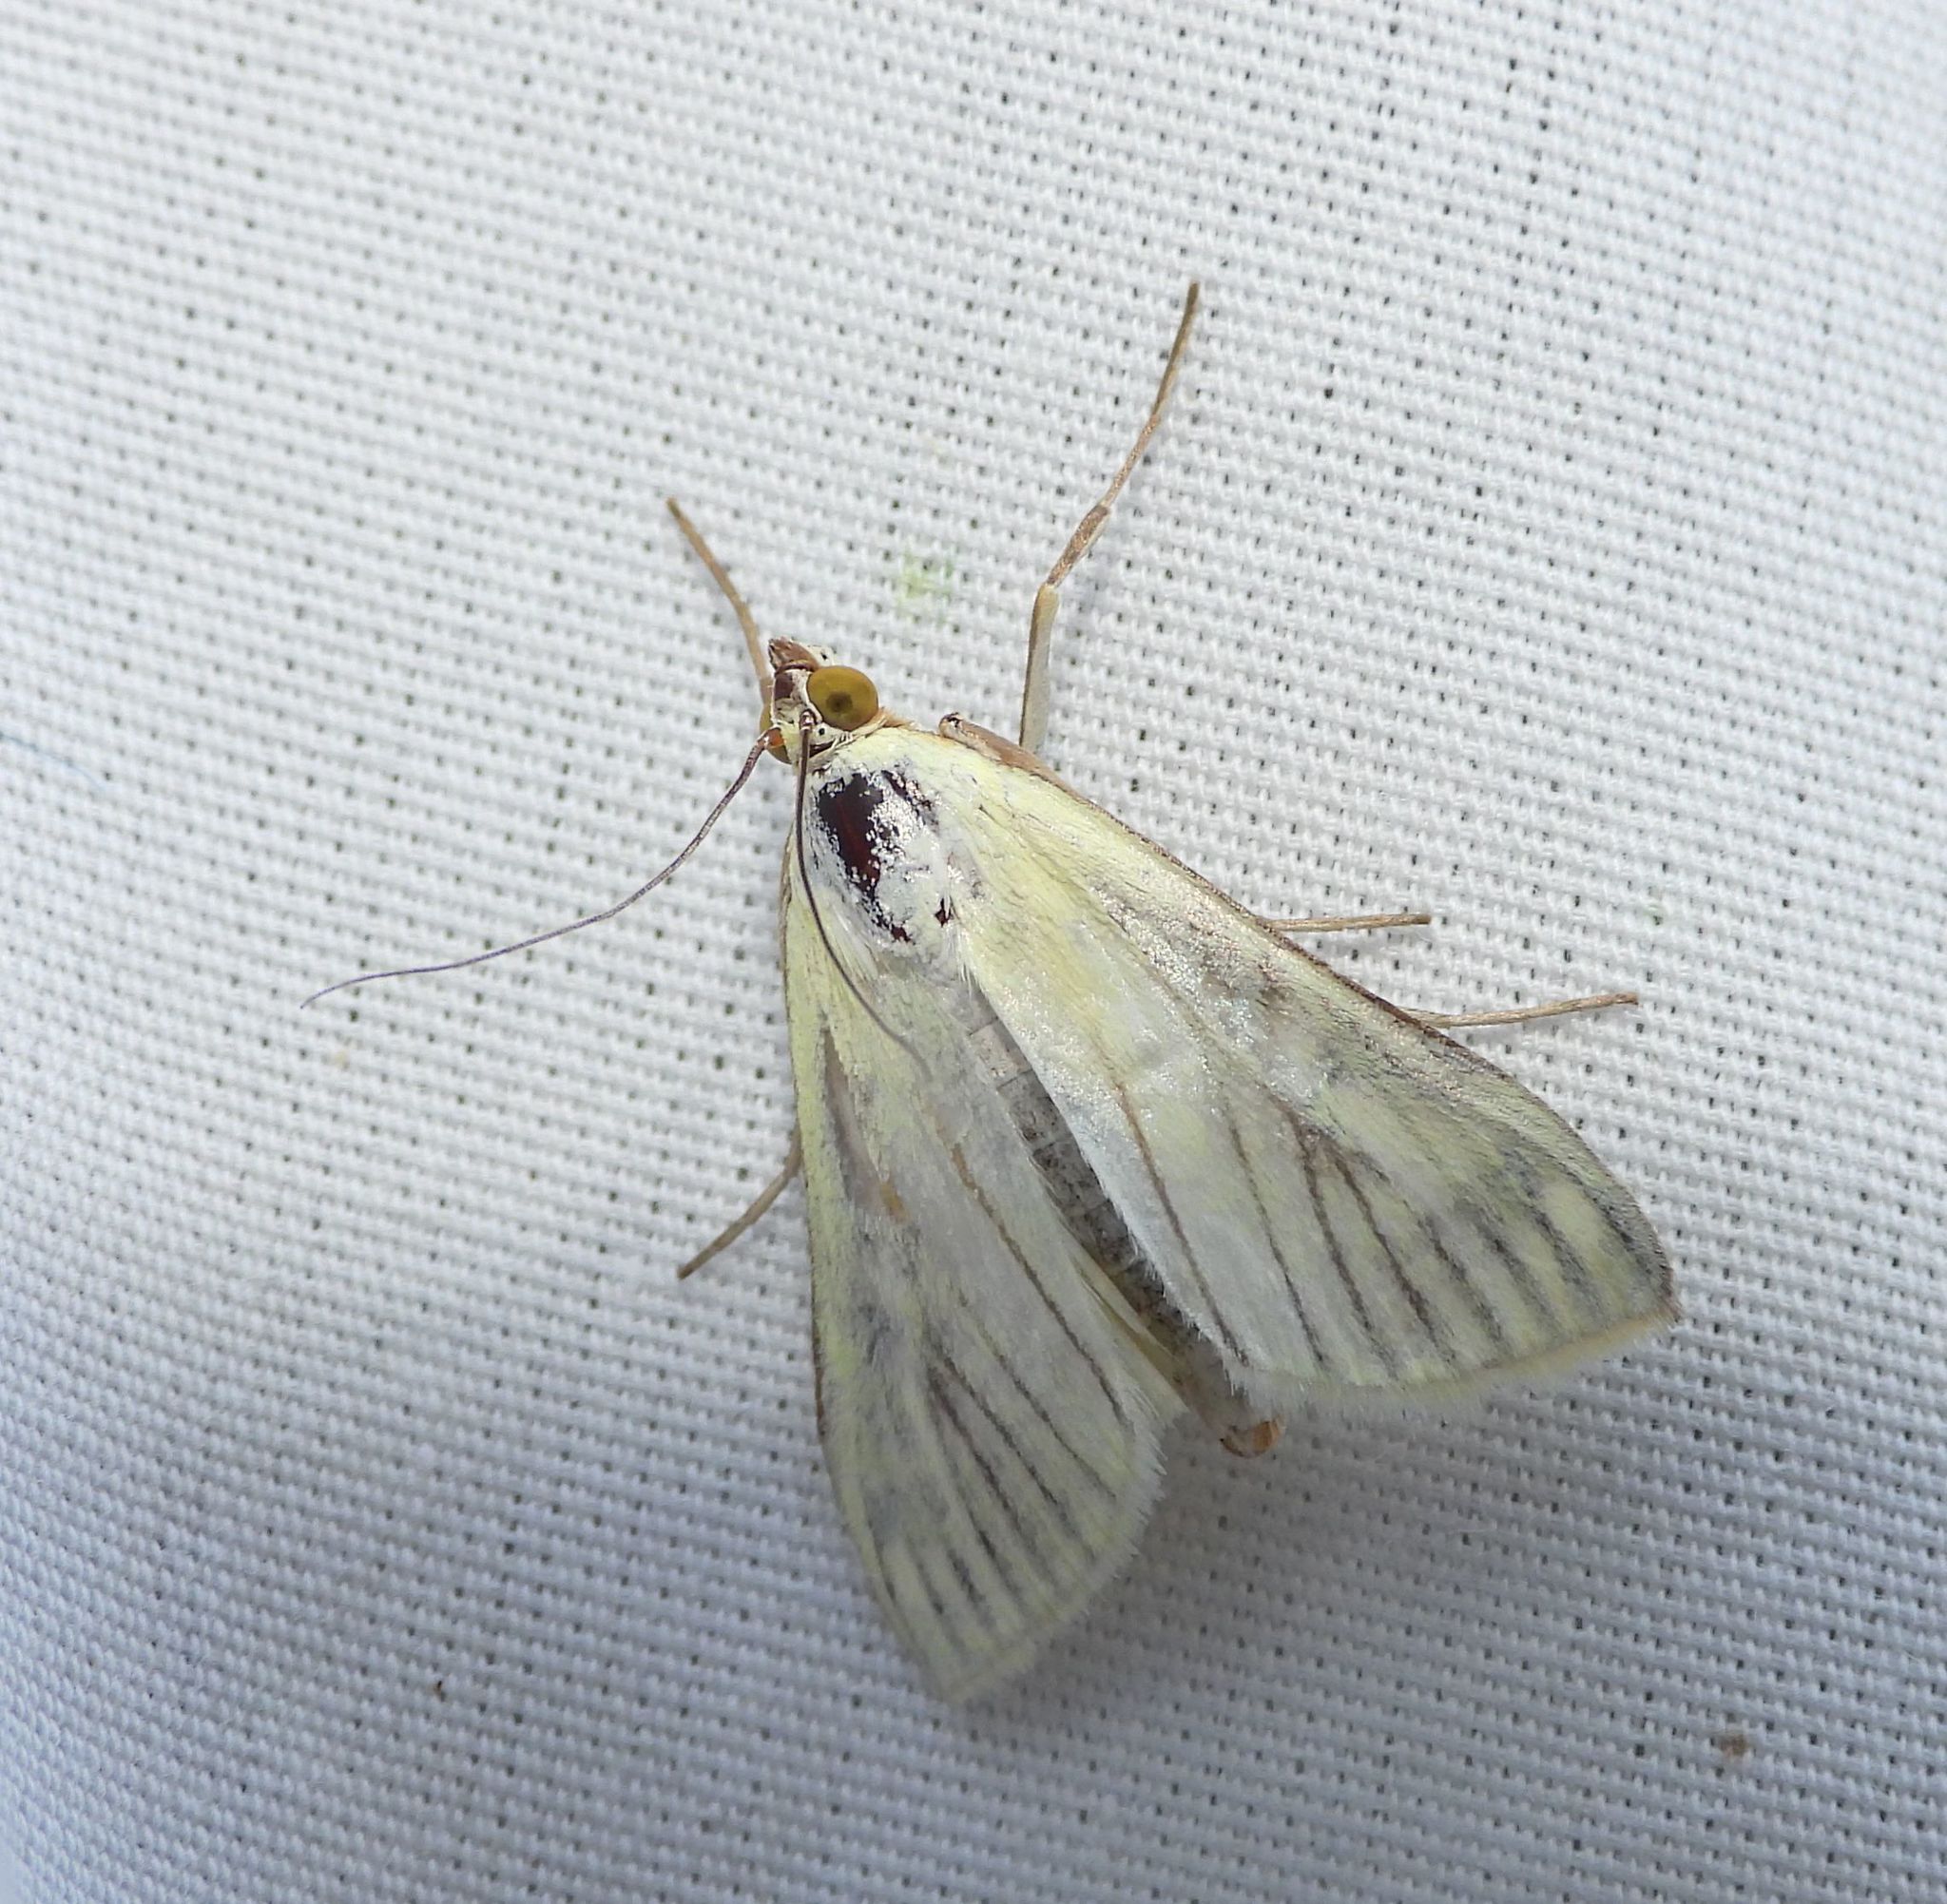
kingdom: Animalia
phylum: Arthropoda
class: Insecta
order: Lepidoptera
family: Crambidae
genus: Sitochroa
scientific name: Sitochroa palealis
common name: Greenish-yellow sitochroa moth
